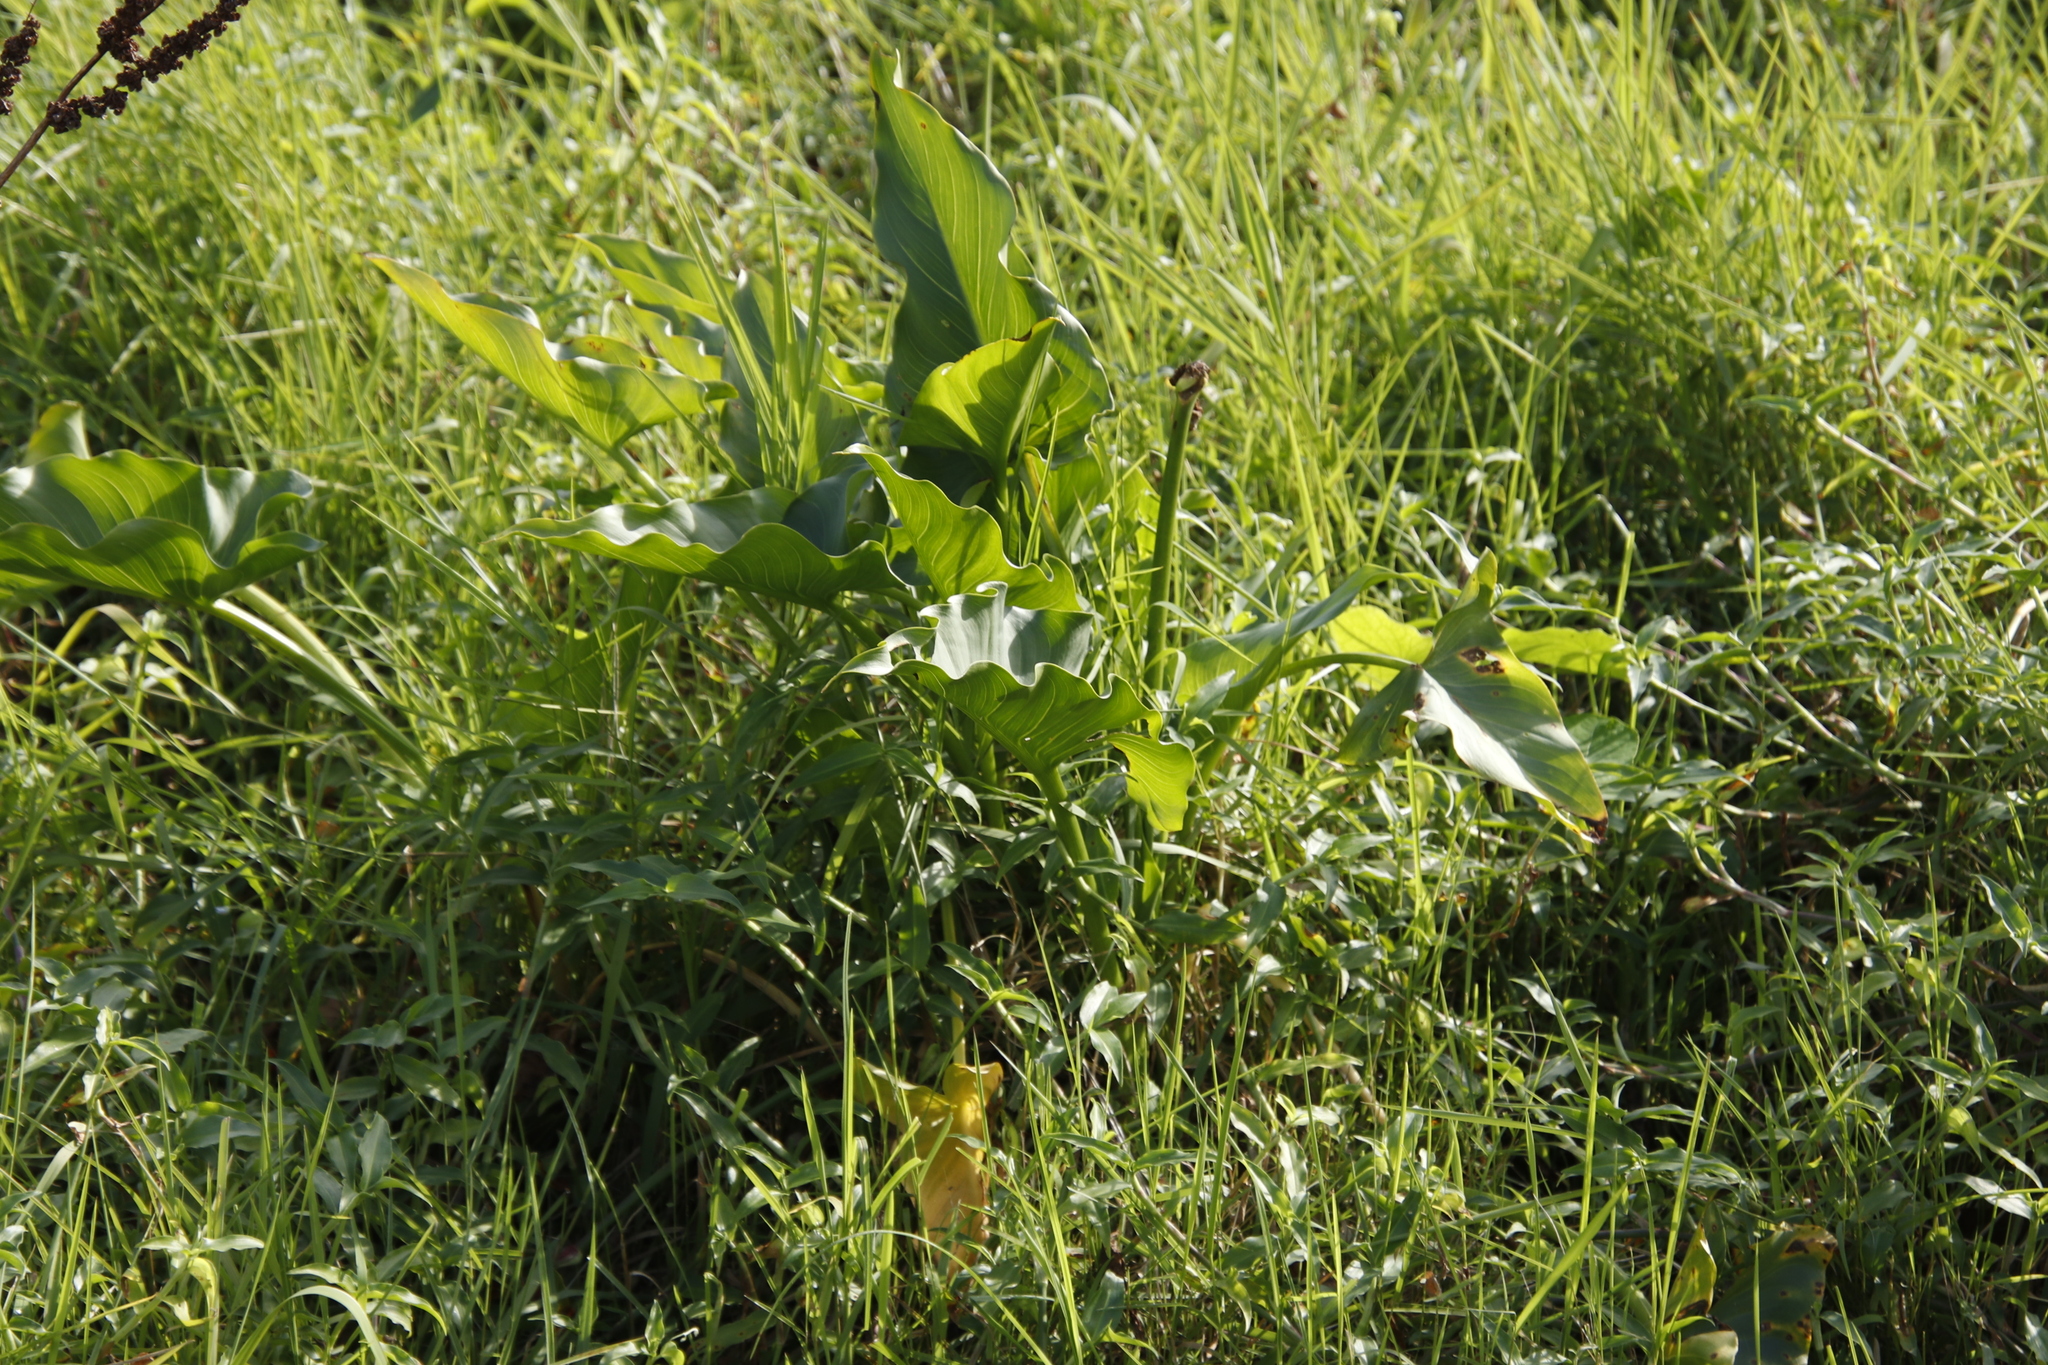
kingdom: Plantae
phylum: Tracheophyta
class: Liliopsida
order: Alismatales
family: Araceae
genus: Zantedeschia
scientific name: Zantedeschia aethiopica
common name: Altar-lily
